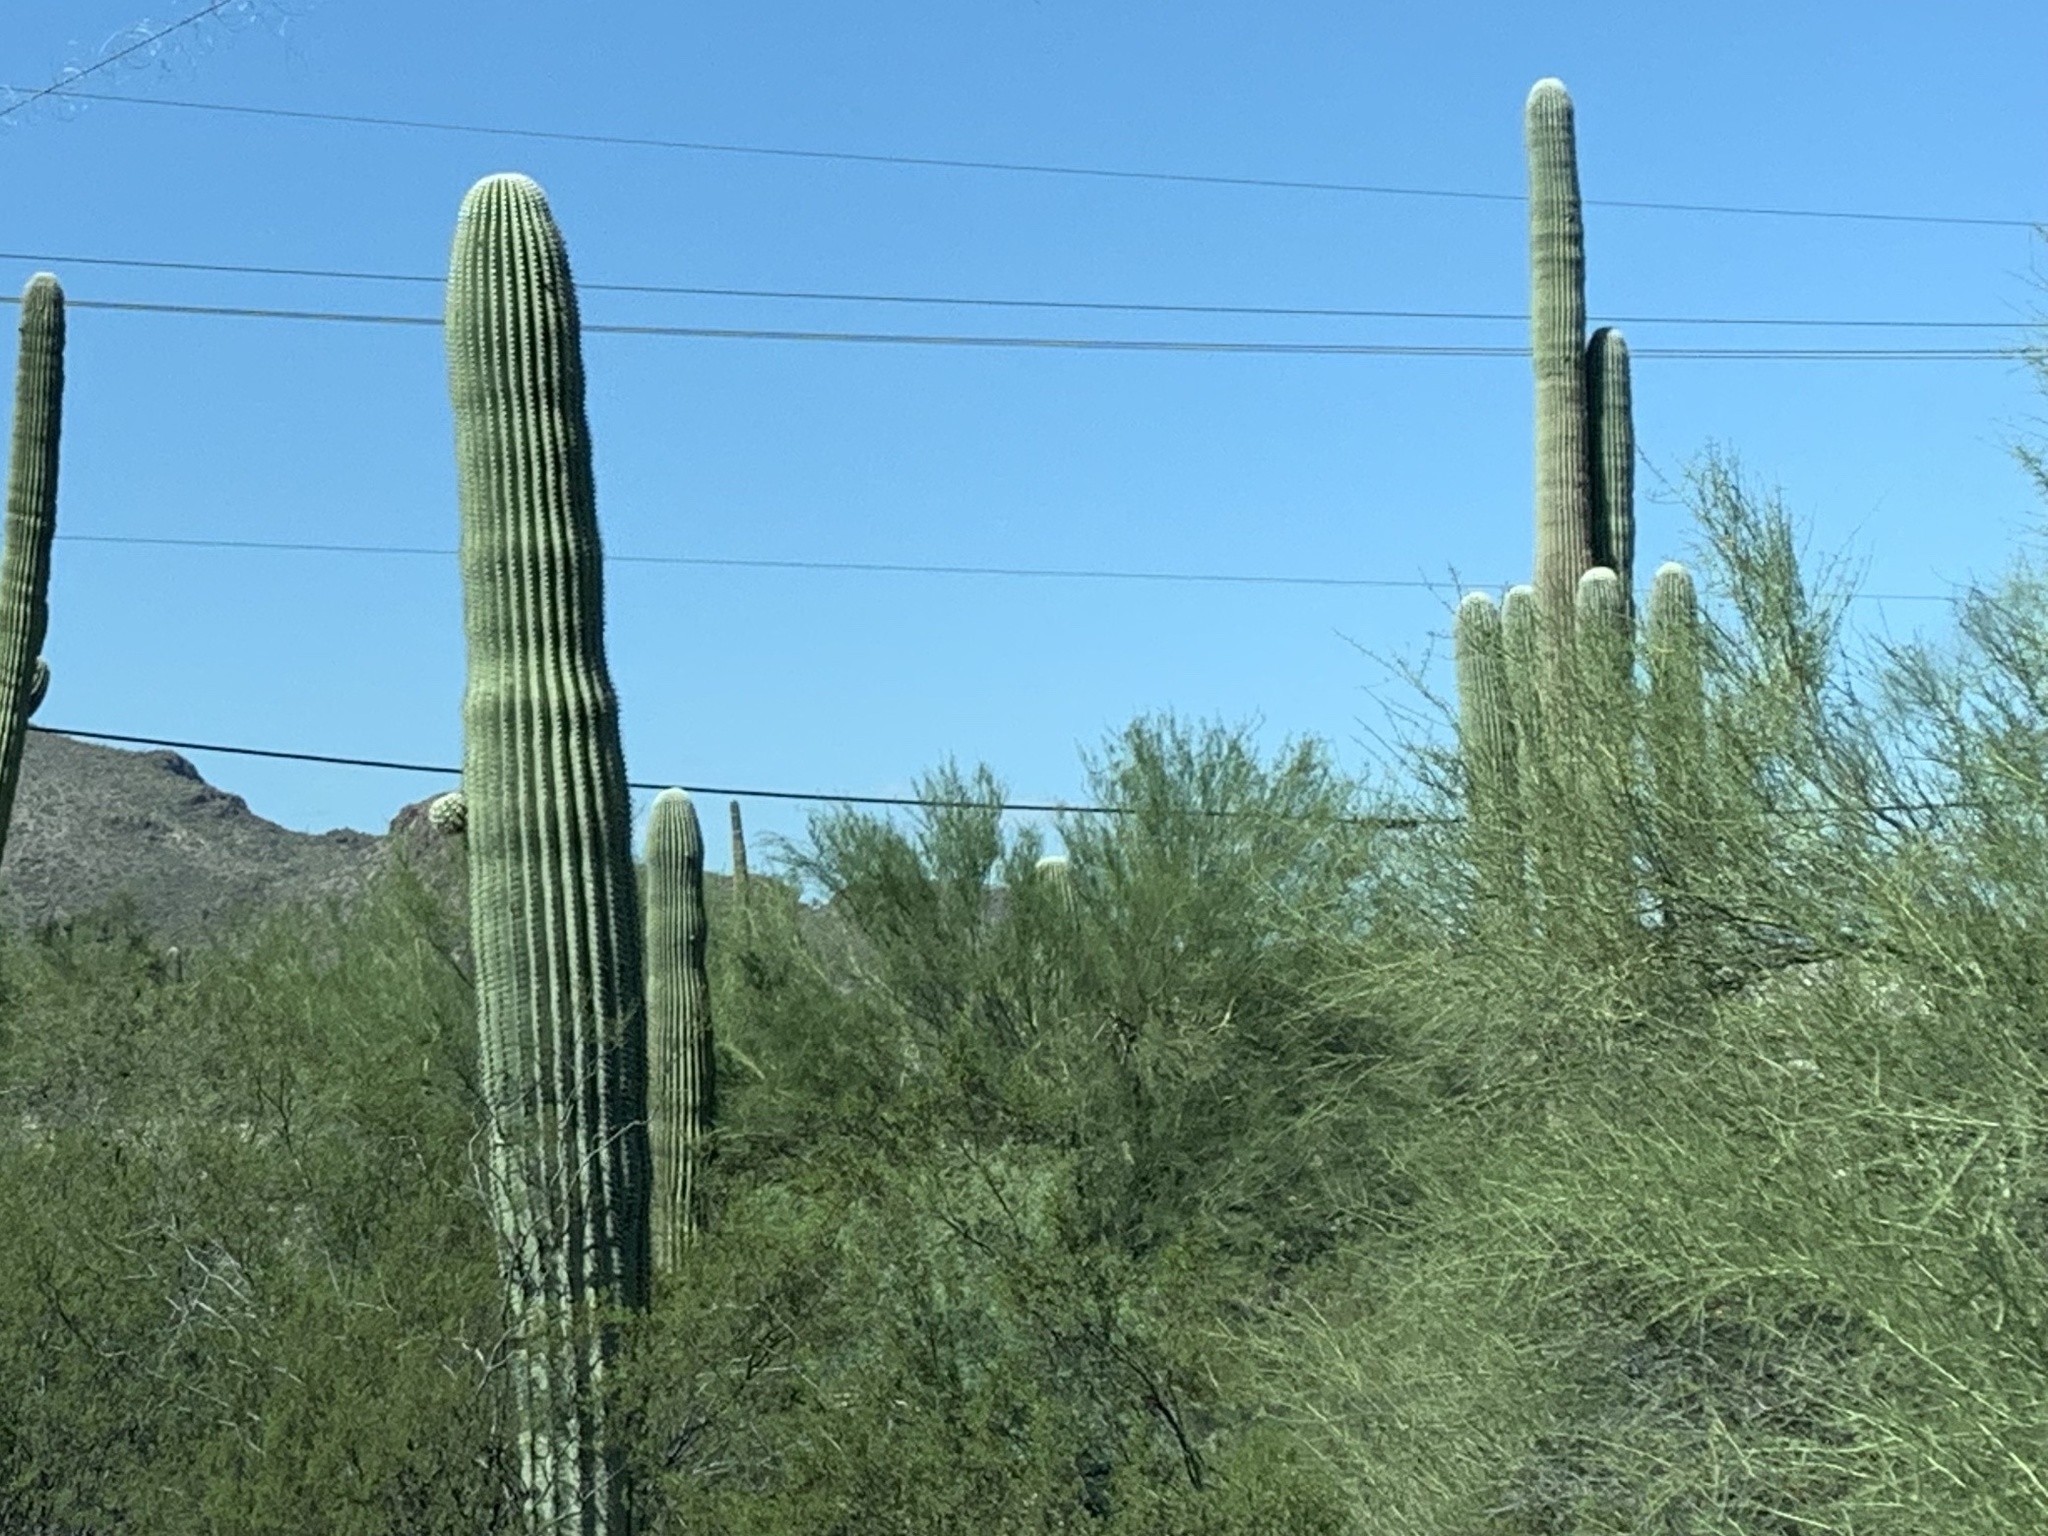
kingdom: Plantae
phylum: Tracheophyta
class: Magnoliopsida
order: Caryophyllales
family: Cactaceae
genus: Carnegiea
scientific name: Carnegiea gigantea
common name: Saguaro
